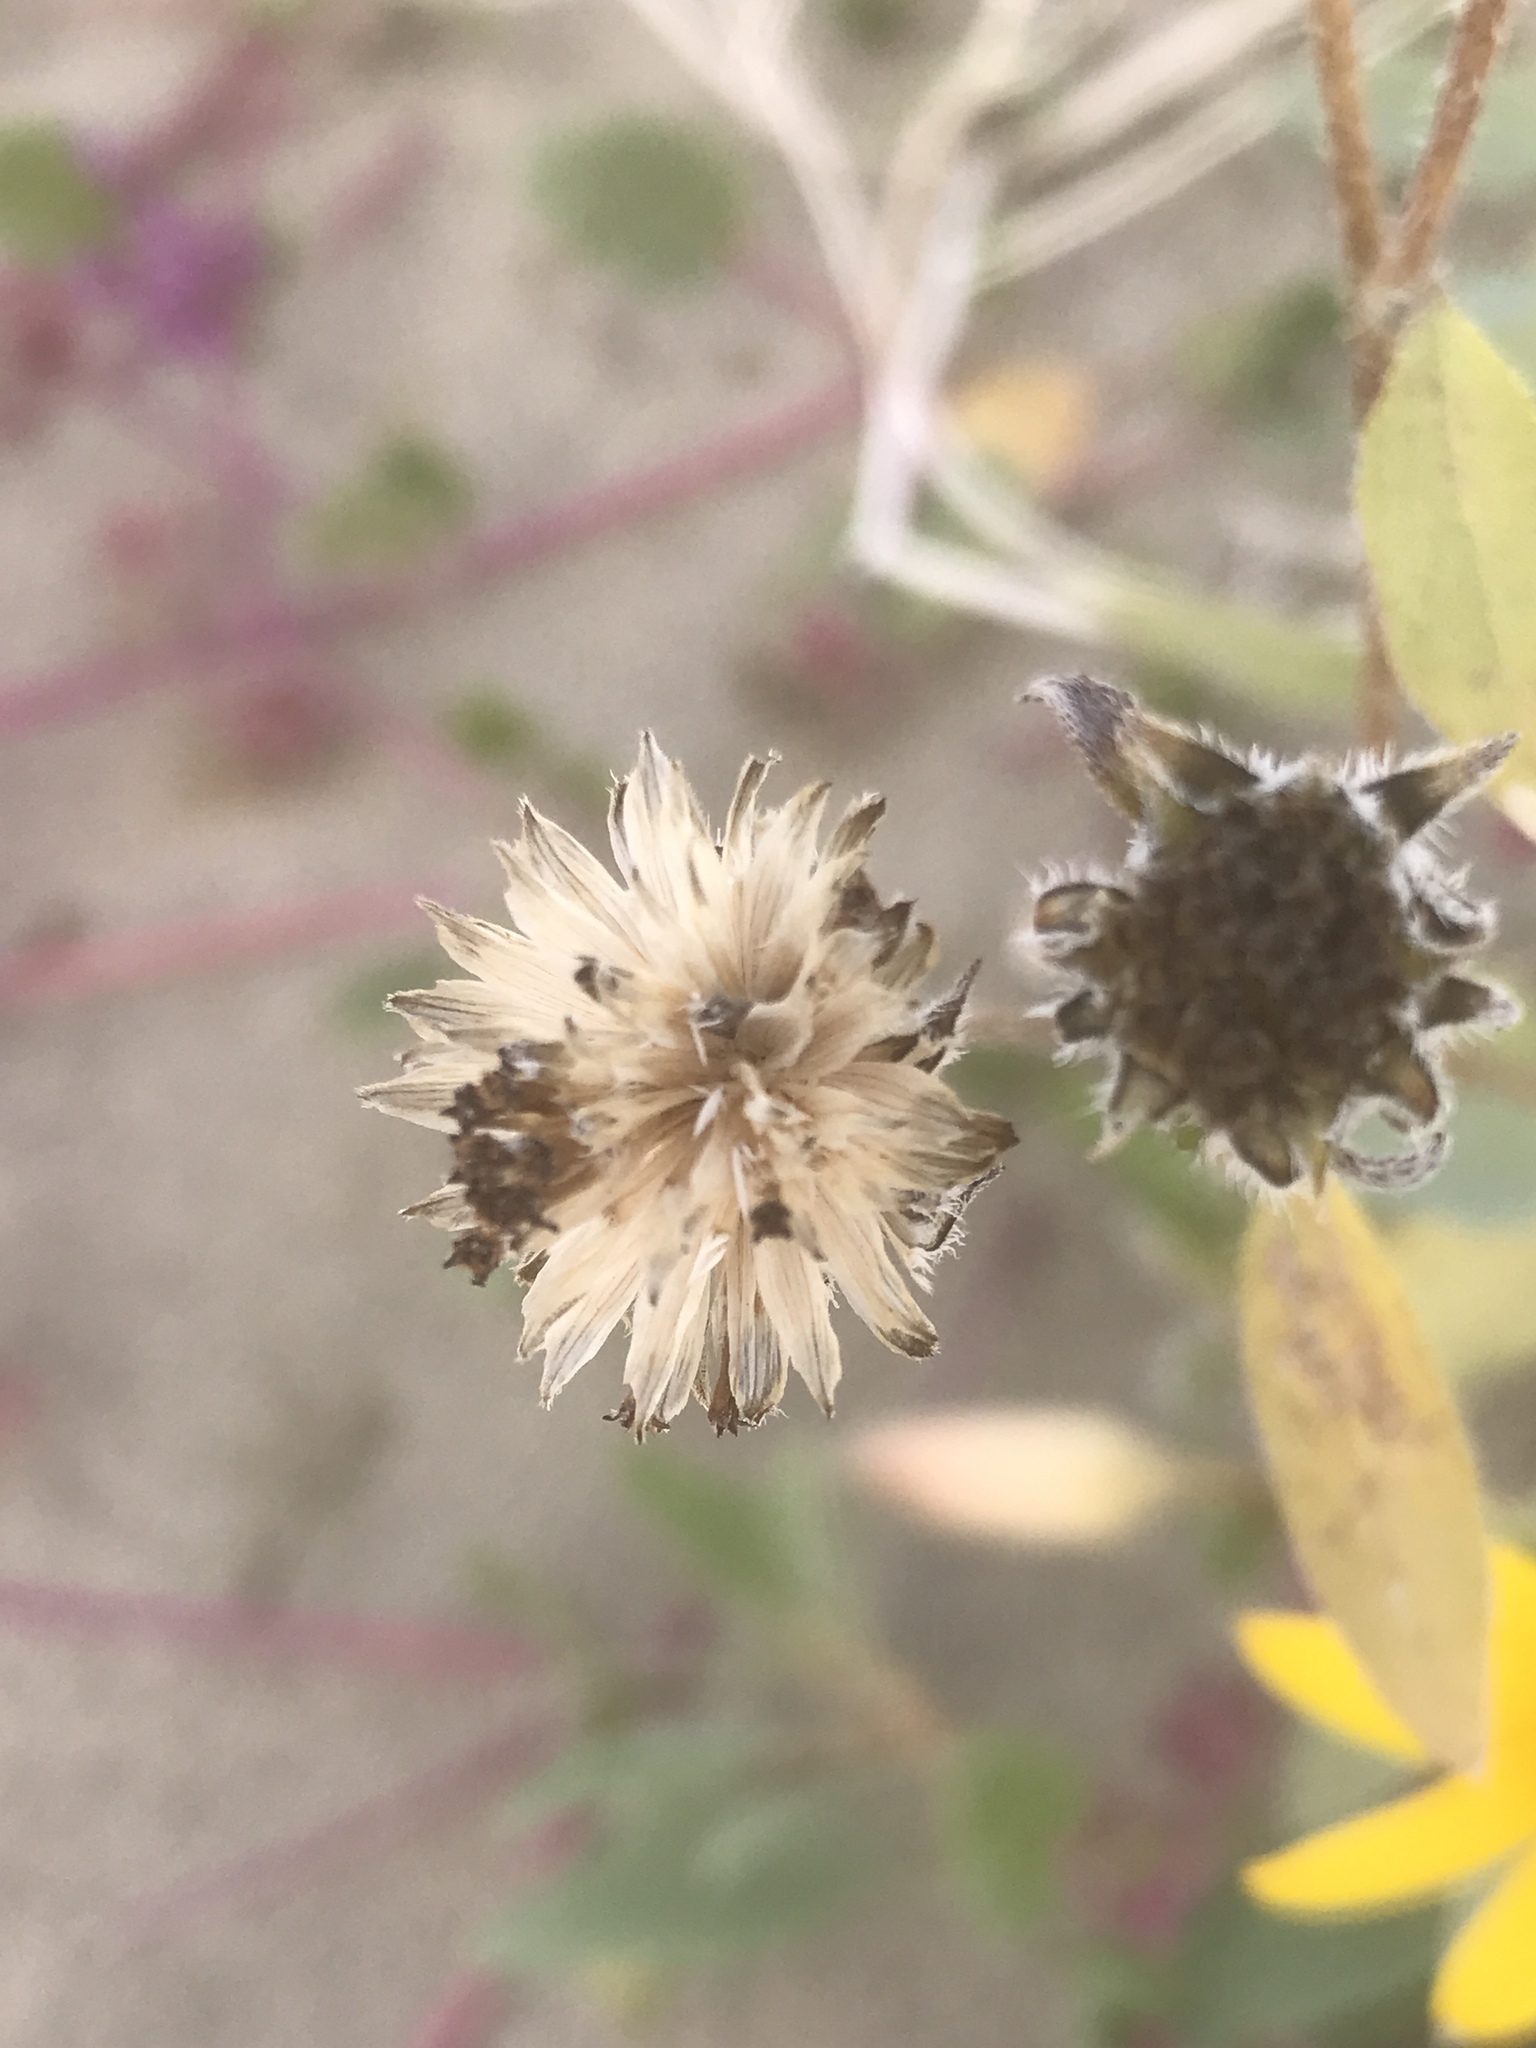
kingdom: Plantae
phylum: Tracheophyta
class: Magnoliopsida
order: Asterales
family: Asteraceae
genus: Helianthus
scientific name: Helianthus petiolaris
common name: Lesser sunflower
